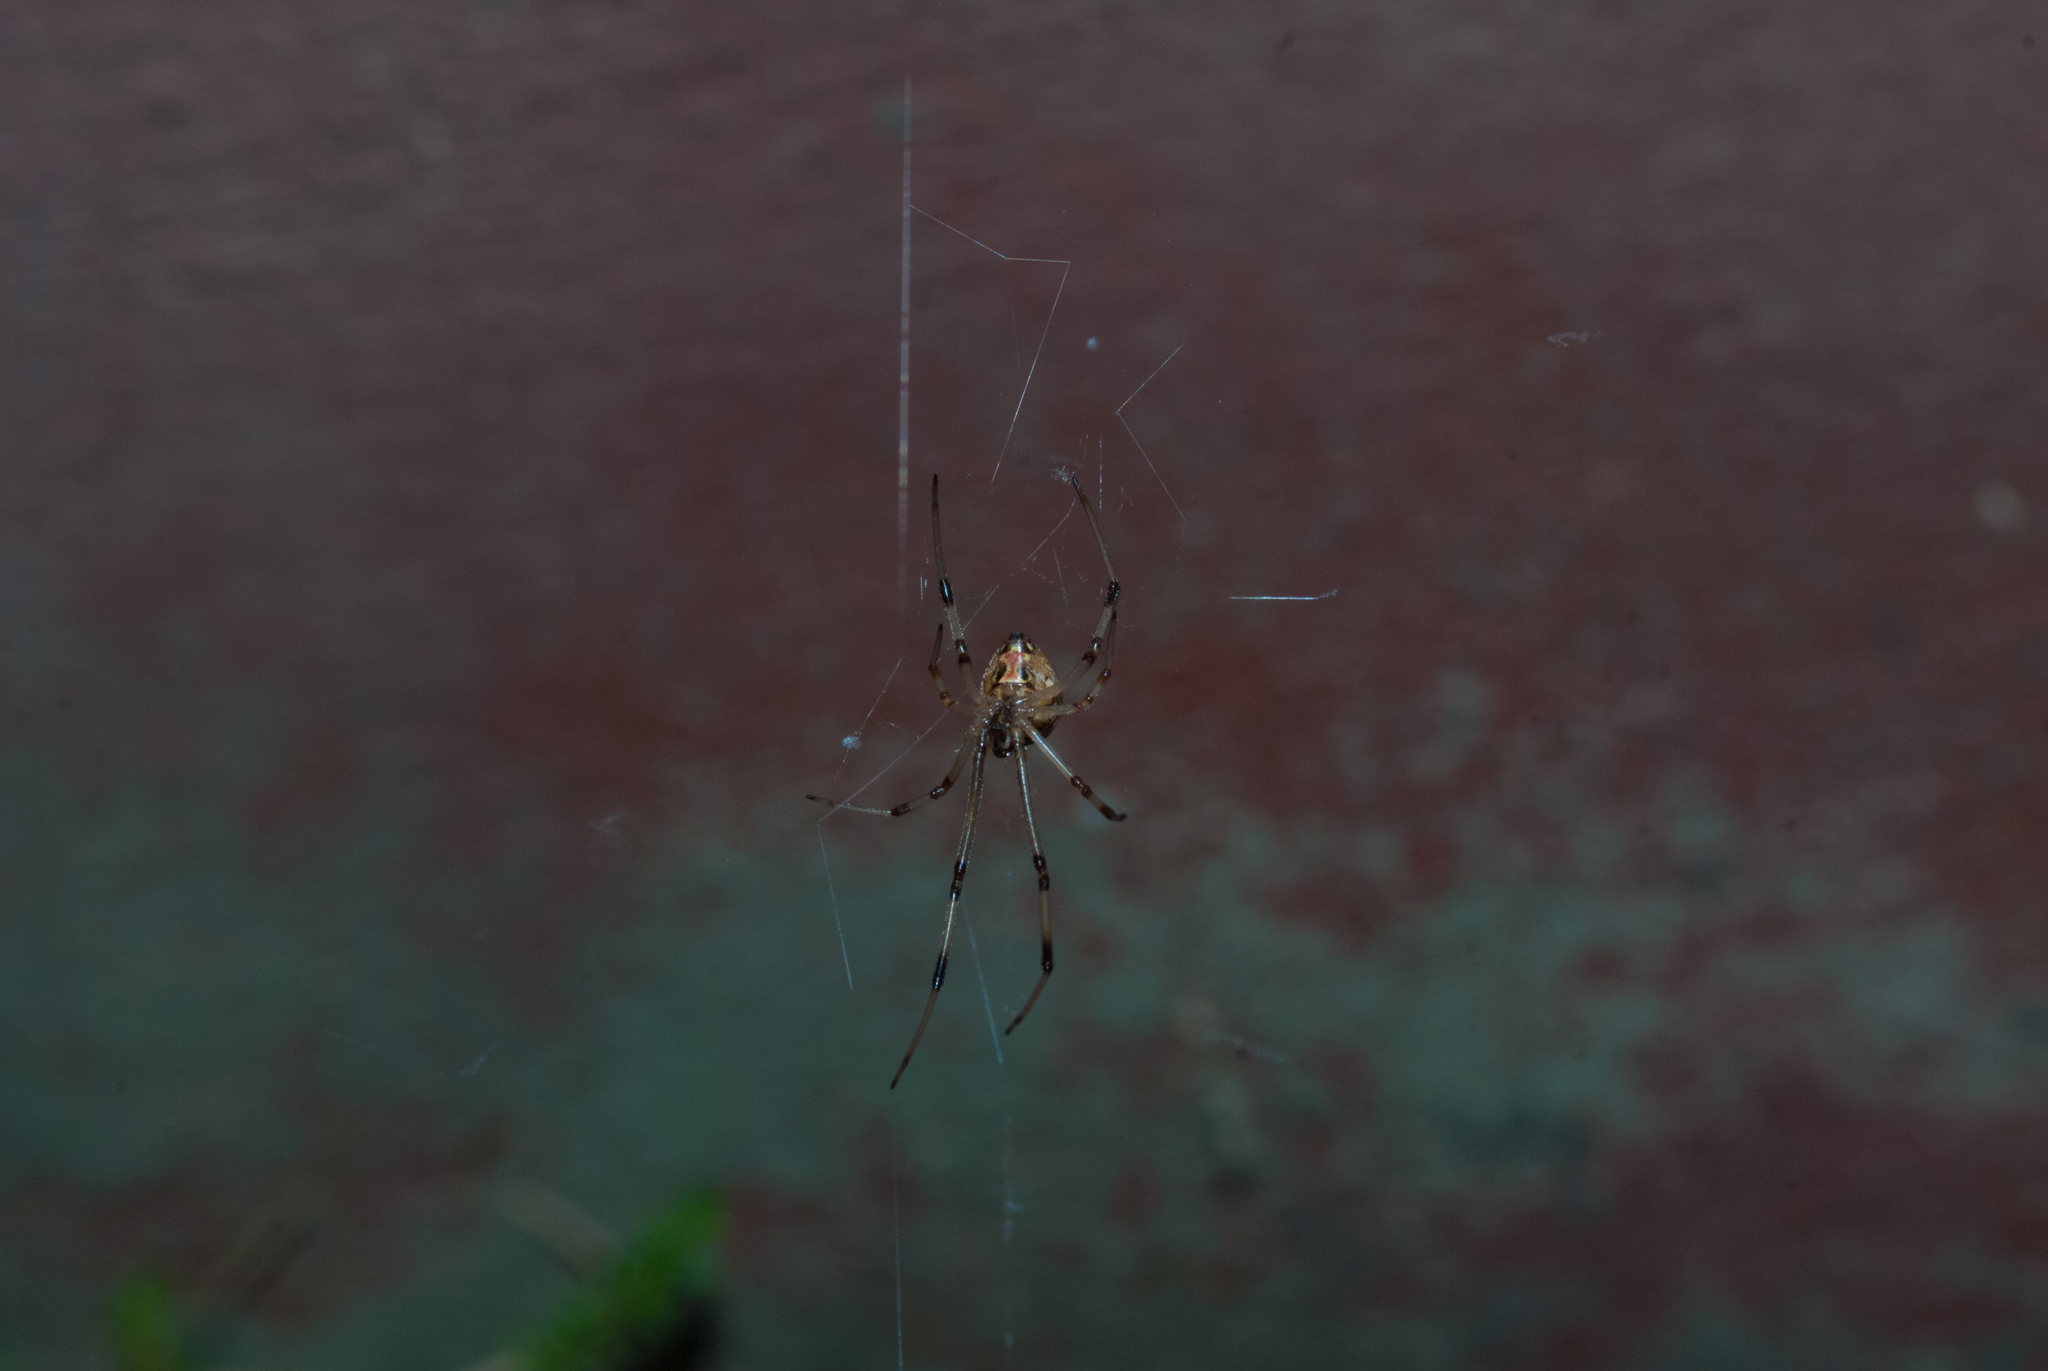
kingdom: Animalia
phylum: Arthropoda
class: Arachnida
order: Araneae
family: Theridiidae
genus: Latrodectus
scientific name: Latrodectus geometricus
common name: Brown widow spider
